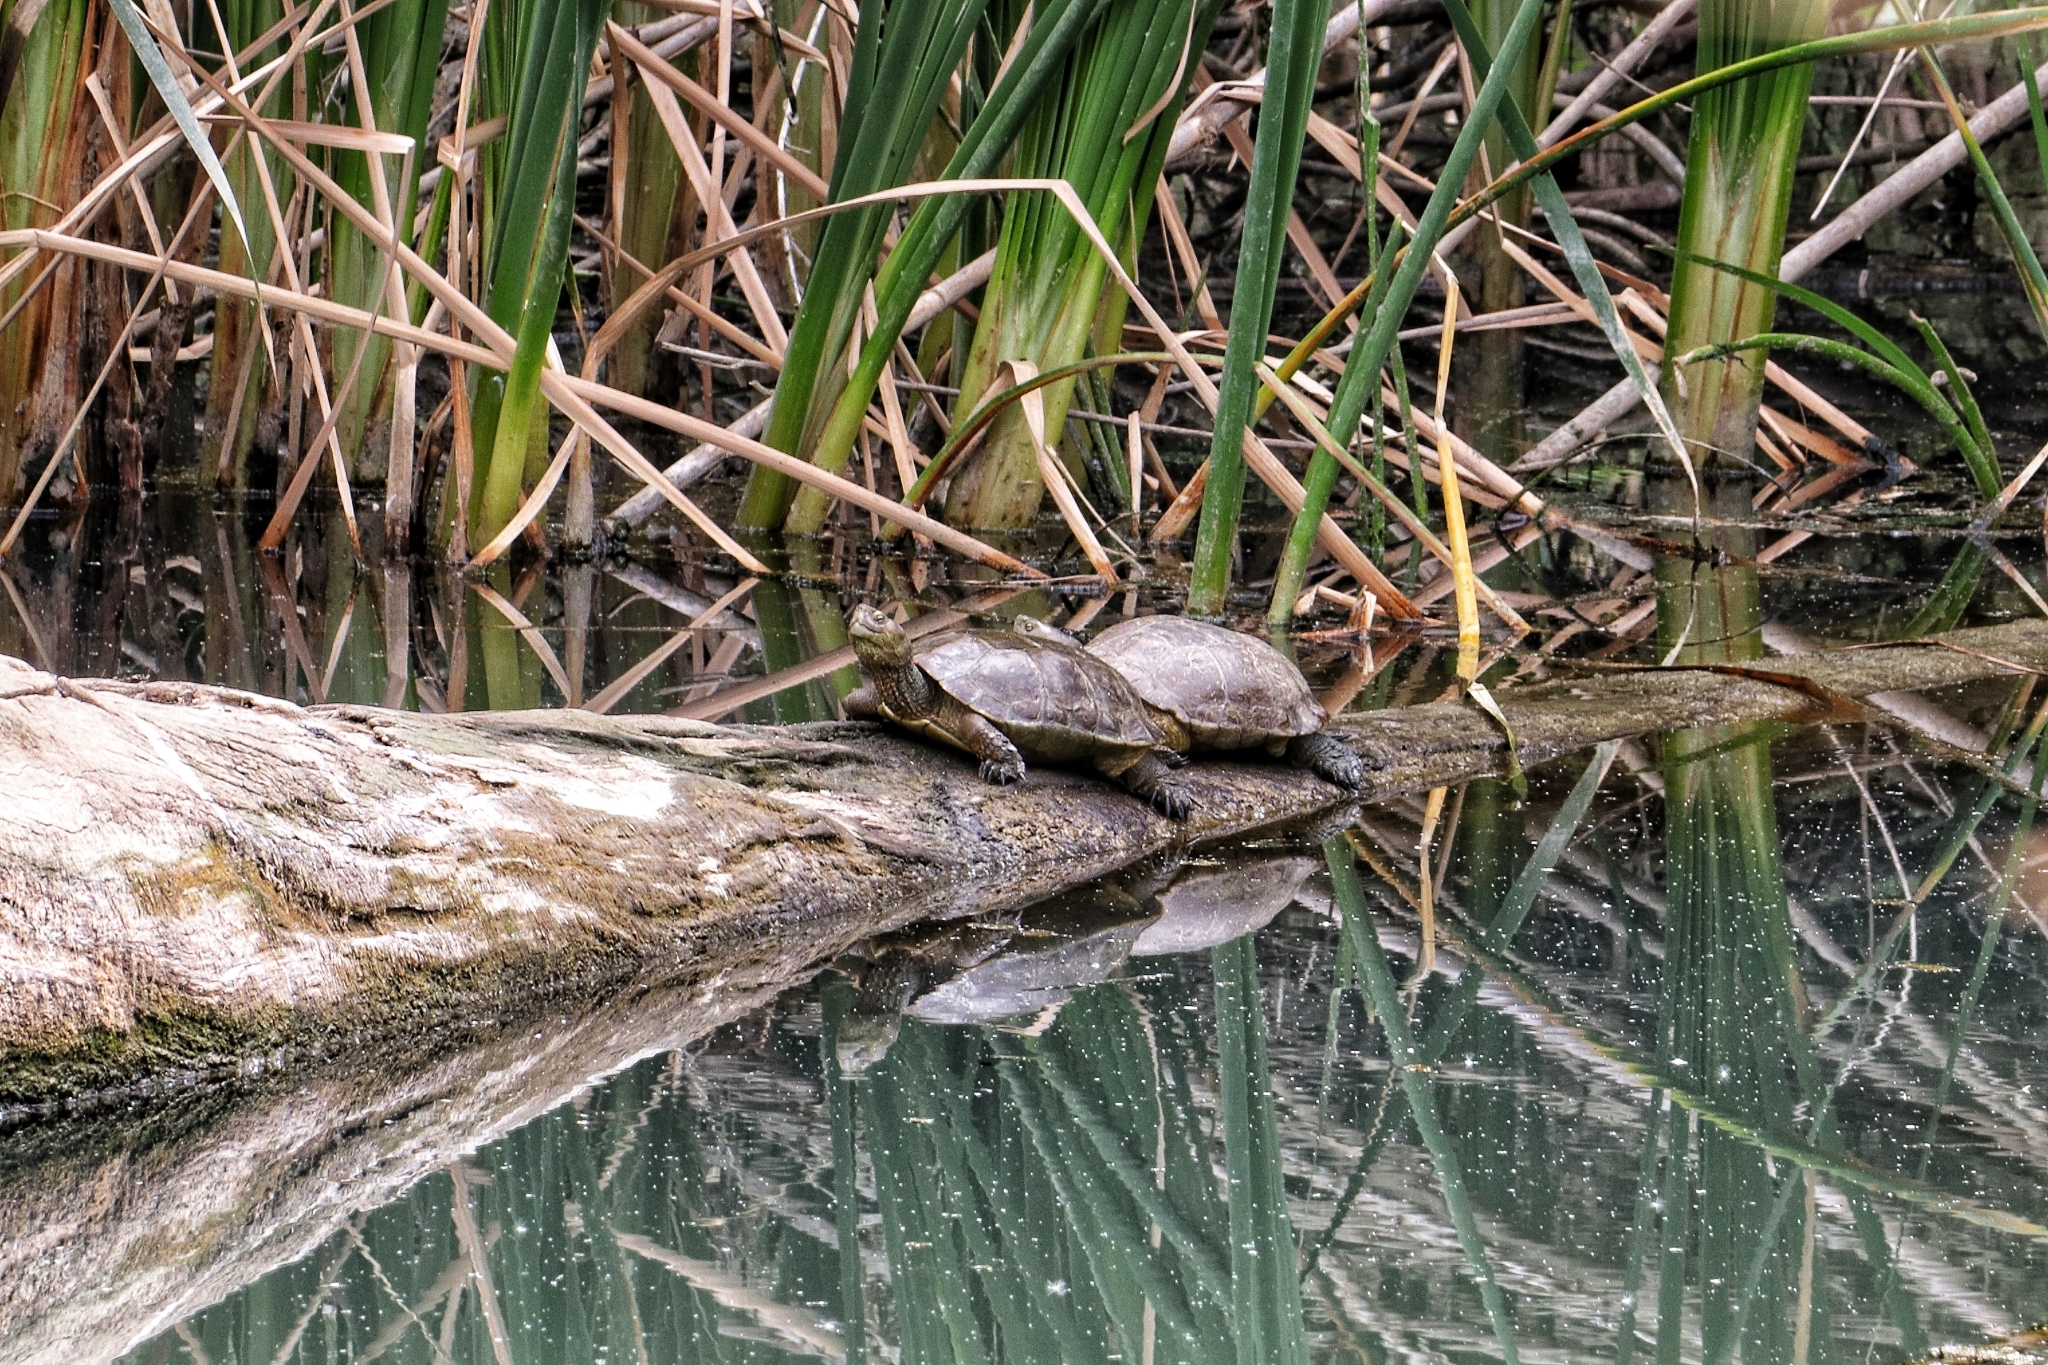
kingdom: Animalia
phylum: Chordata
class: Testudines
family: Geoemydidae
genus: Mauremys
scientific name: Mauremys leprosa
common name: Mediterranean pond turtle
